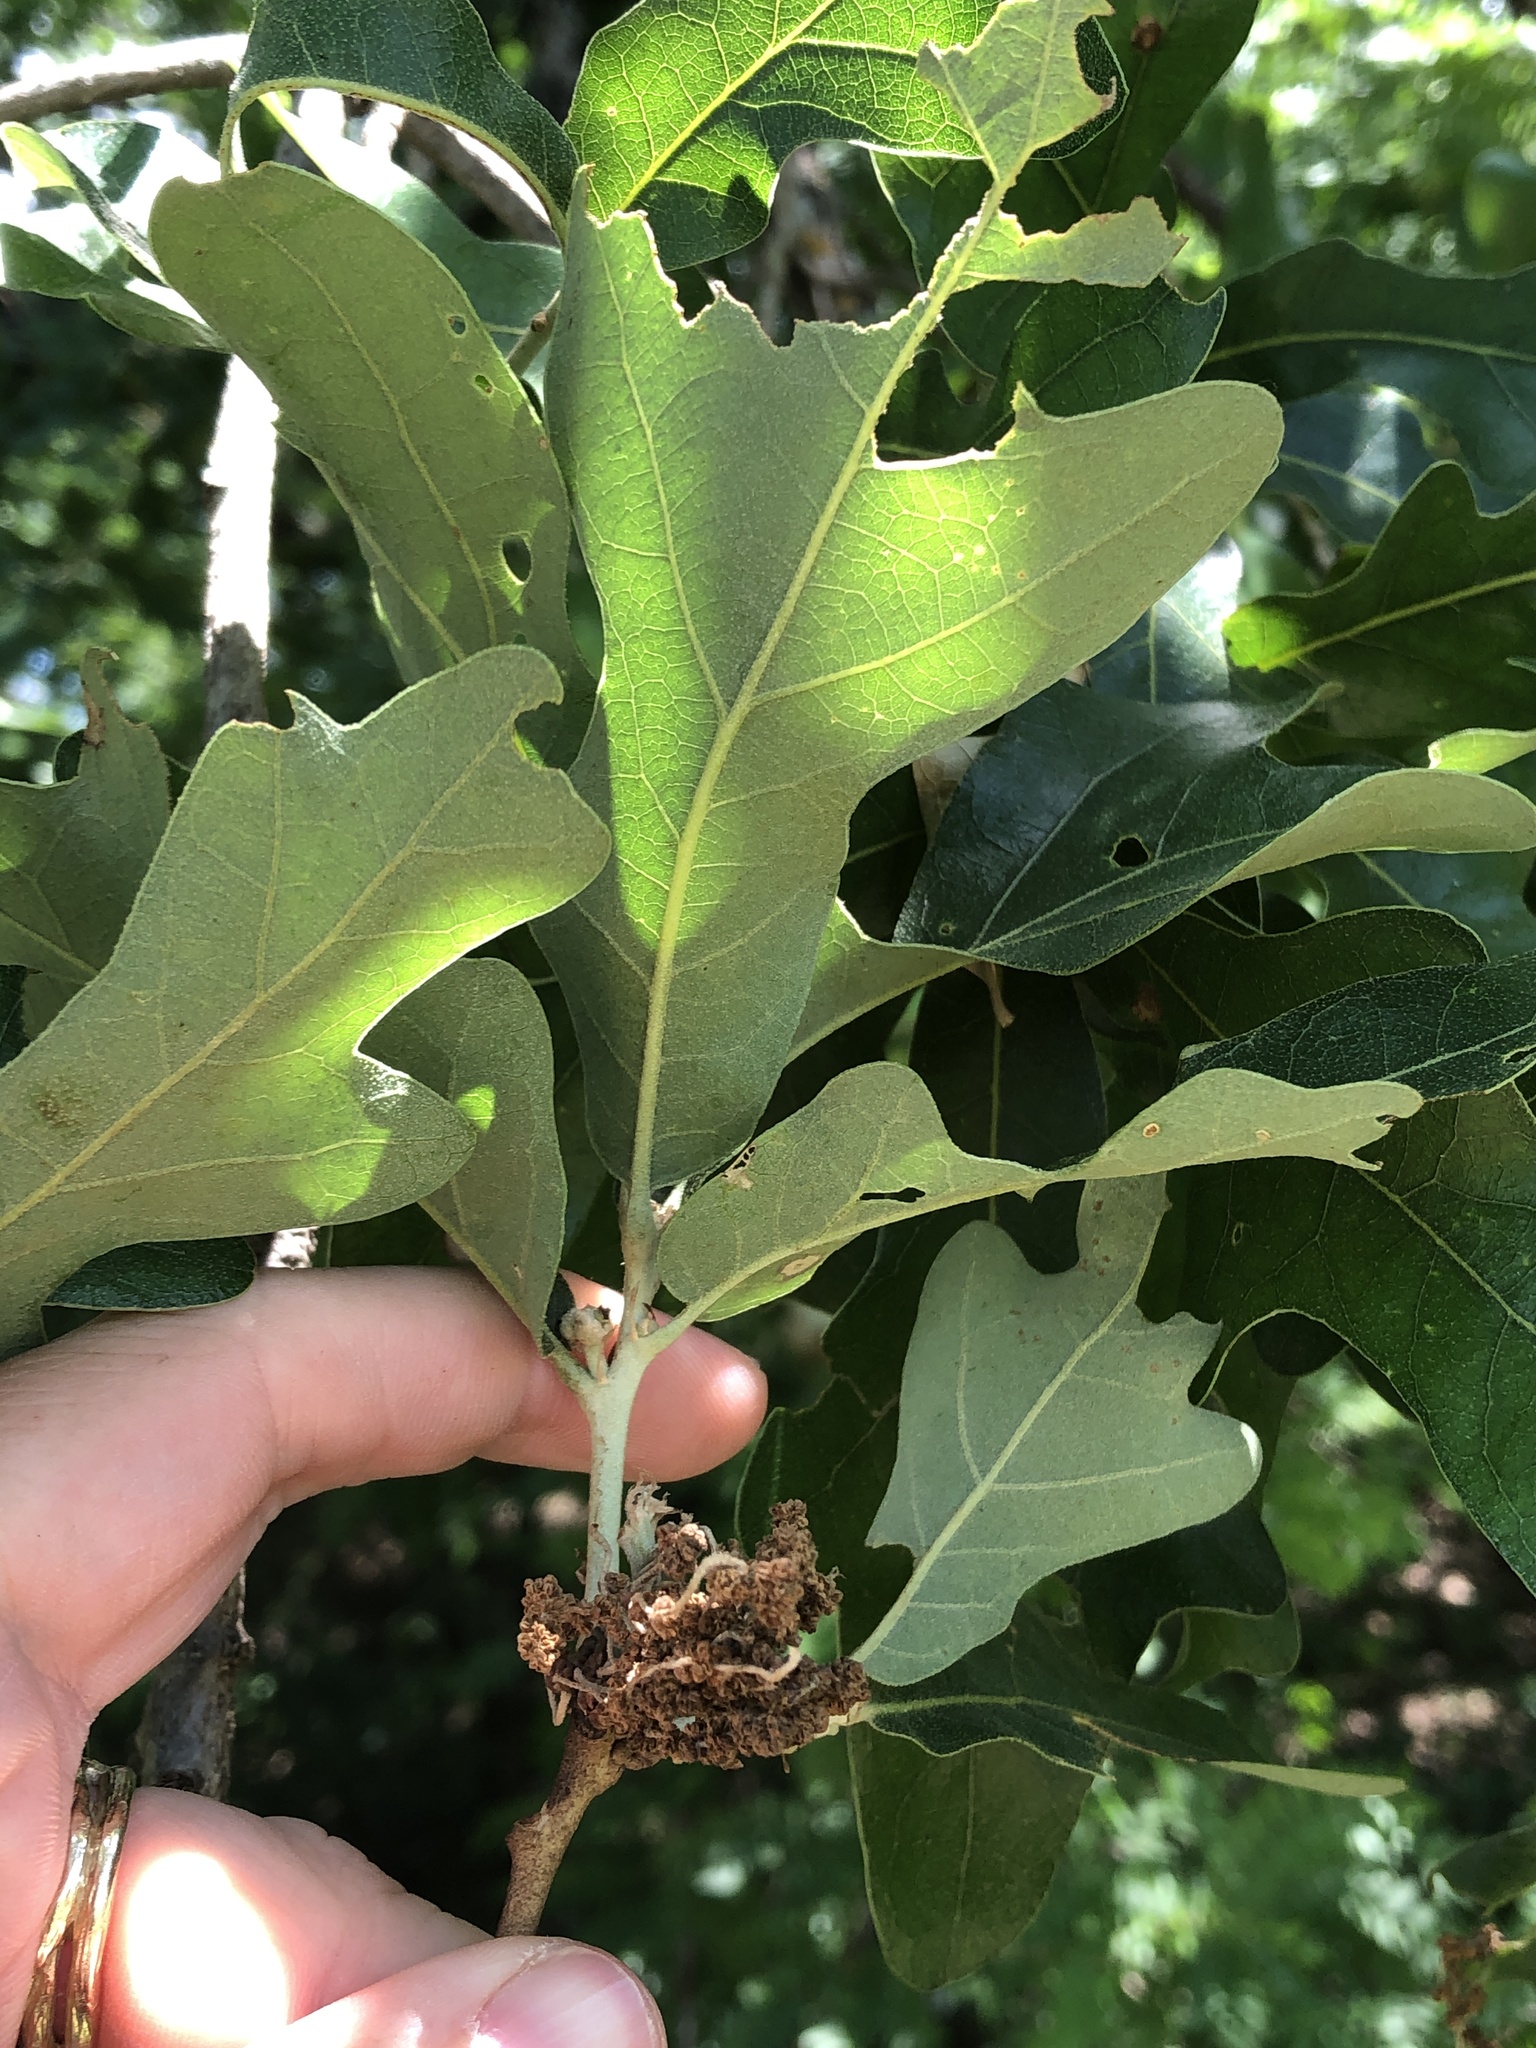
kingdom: Plantae
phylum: Tracheophyta
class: Magnoliopsida
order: Fagales
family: Fagaceae
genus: Quercus
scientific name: Quercus stellata
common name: Post oak
